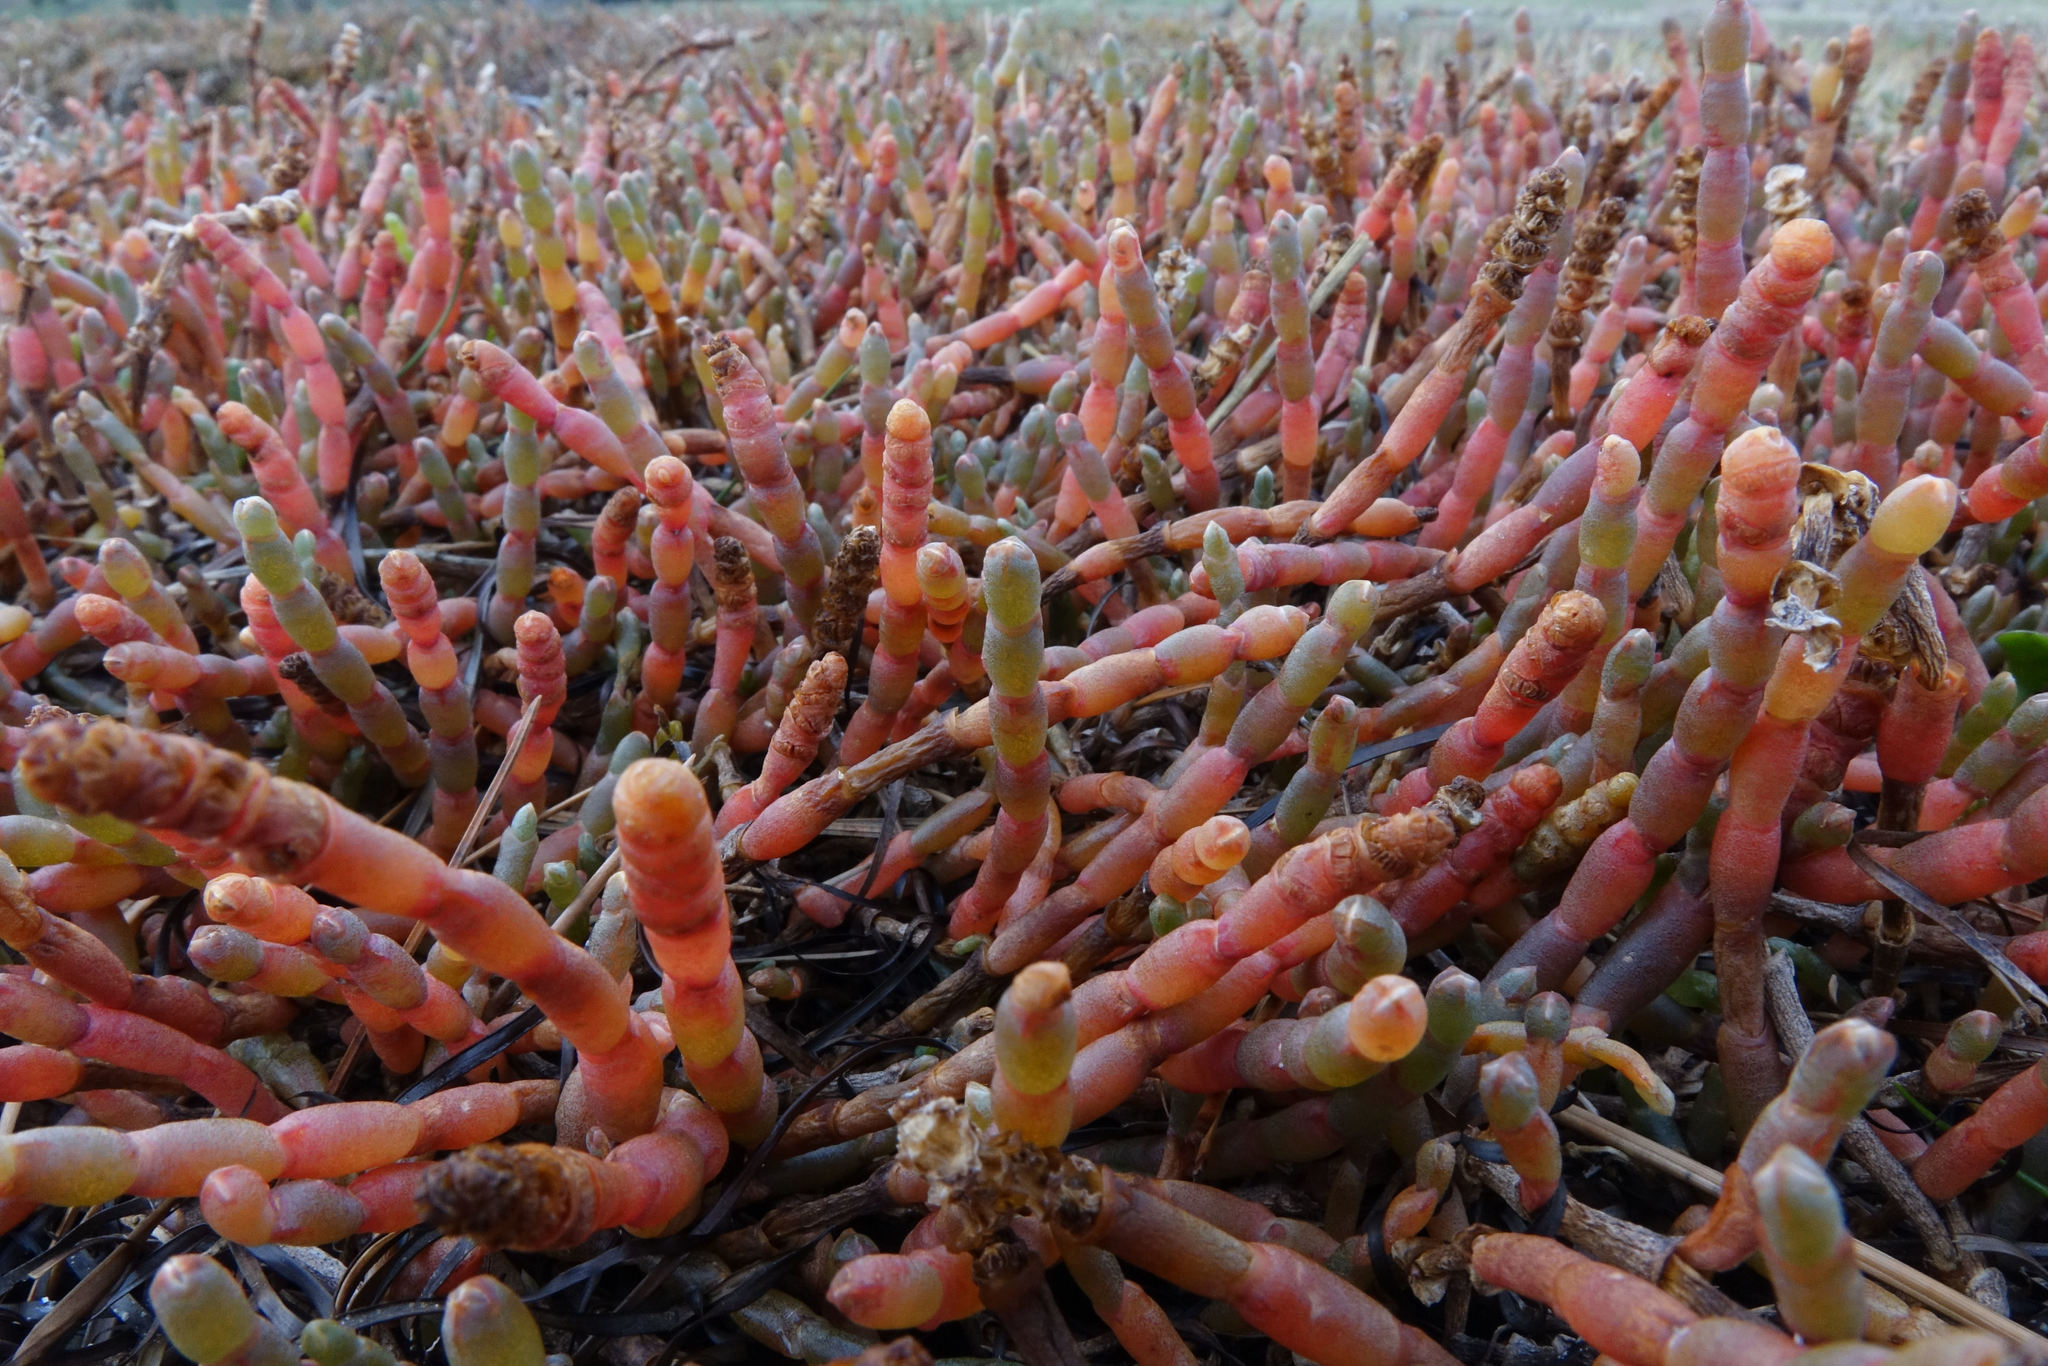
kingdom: Plantae
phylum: Tracheophyta
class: Magnoliopsida
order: Caryophyllales
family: Amaranthaceae
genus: Salicornia
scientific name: Salicornia quinqueflora
